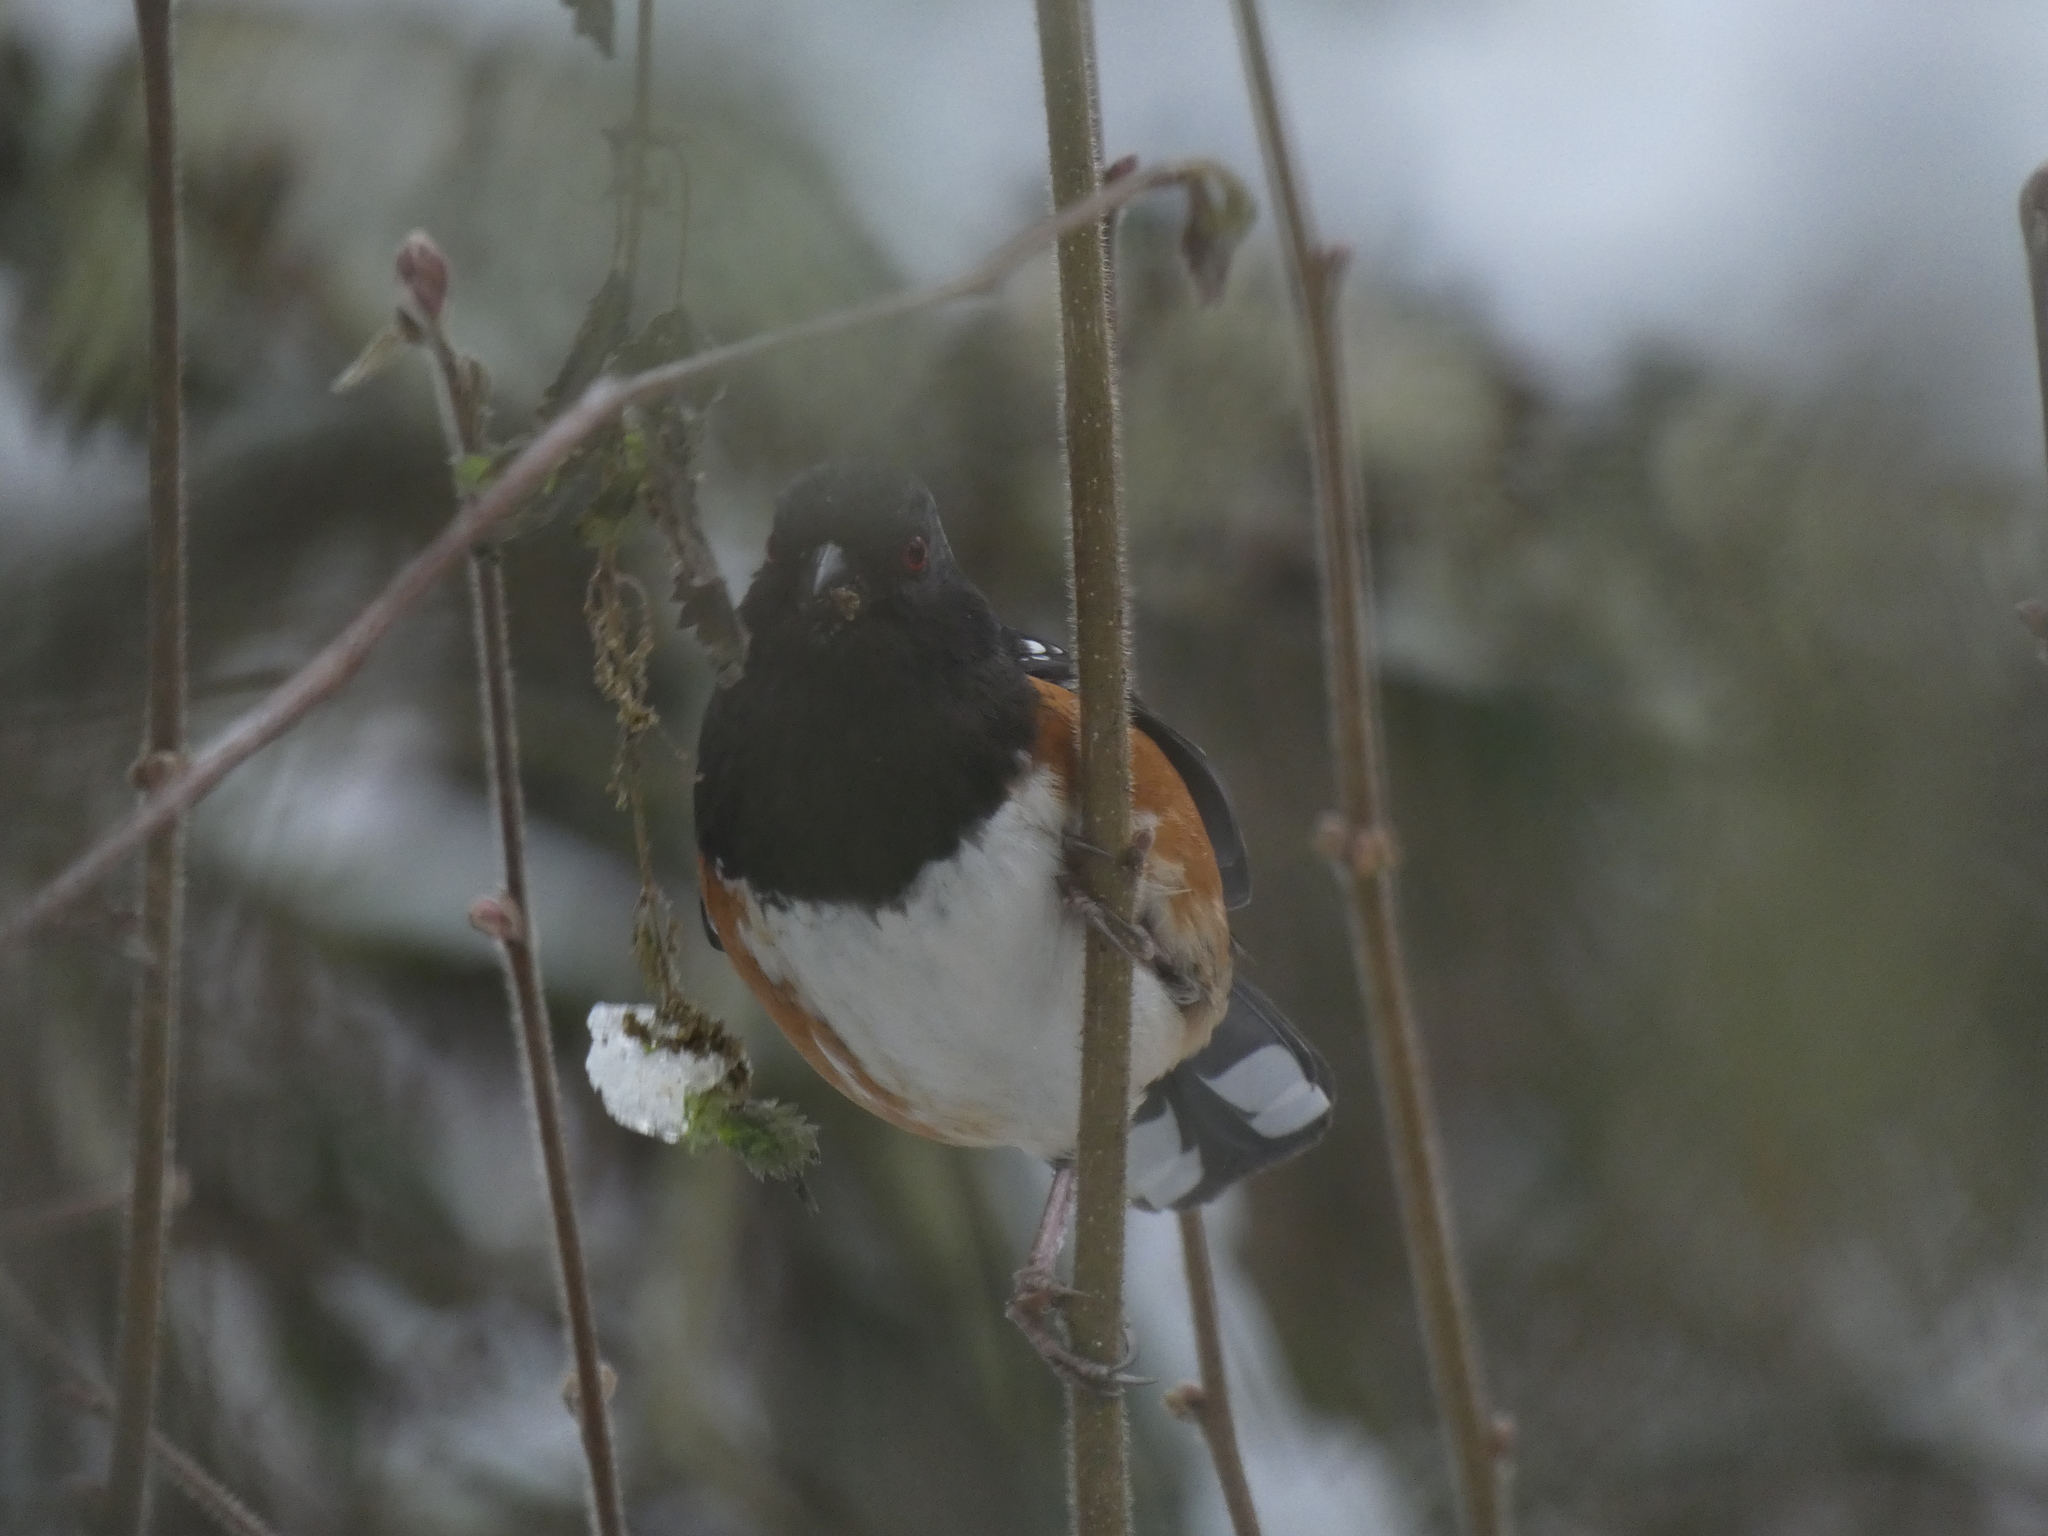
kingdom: Animalia
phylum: Chordata
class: Aves
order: Passeriformes
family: Passerellidae
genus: Pipilo
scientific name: Pipilo maculatus
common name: Spotted towhee
